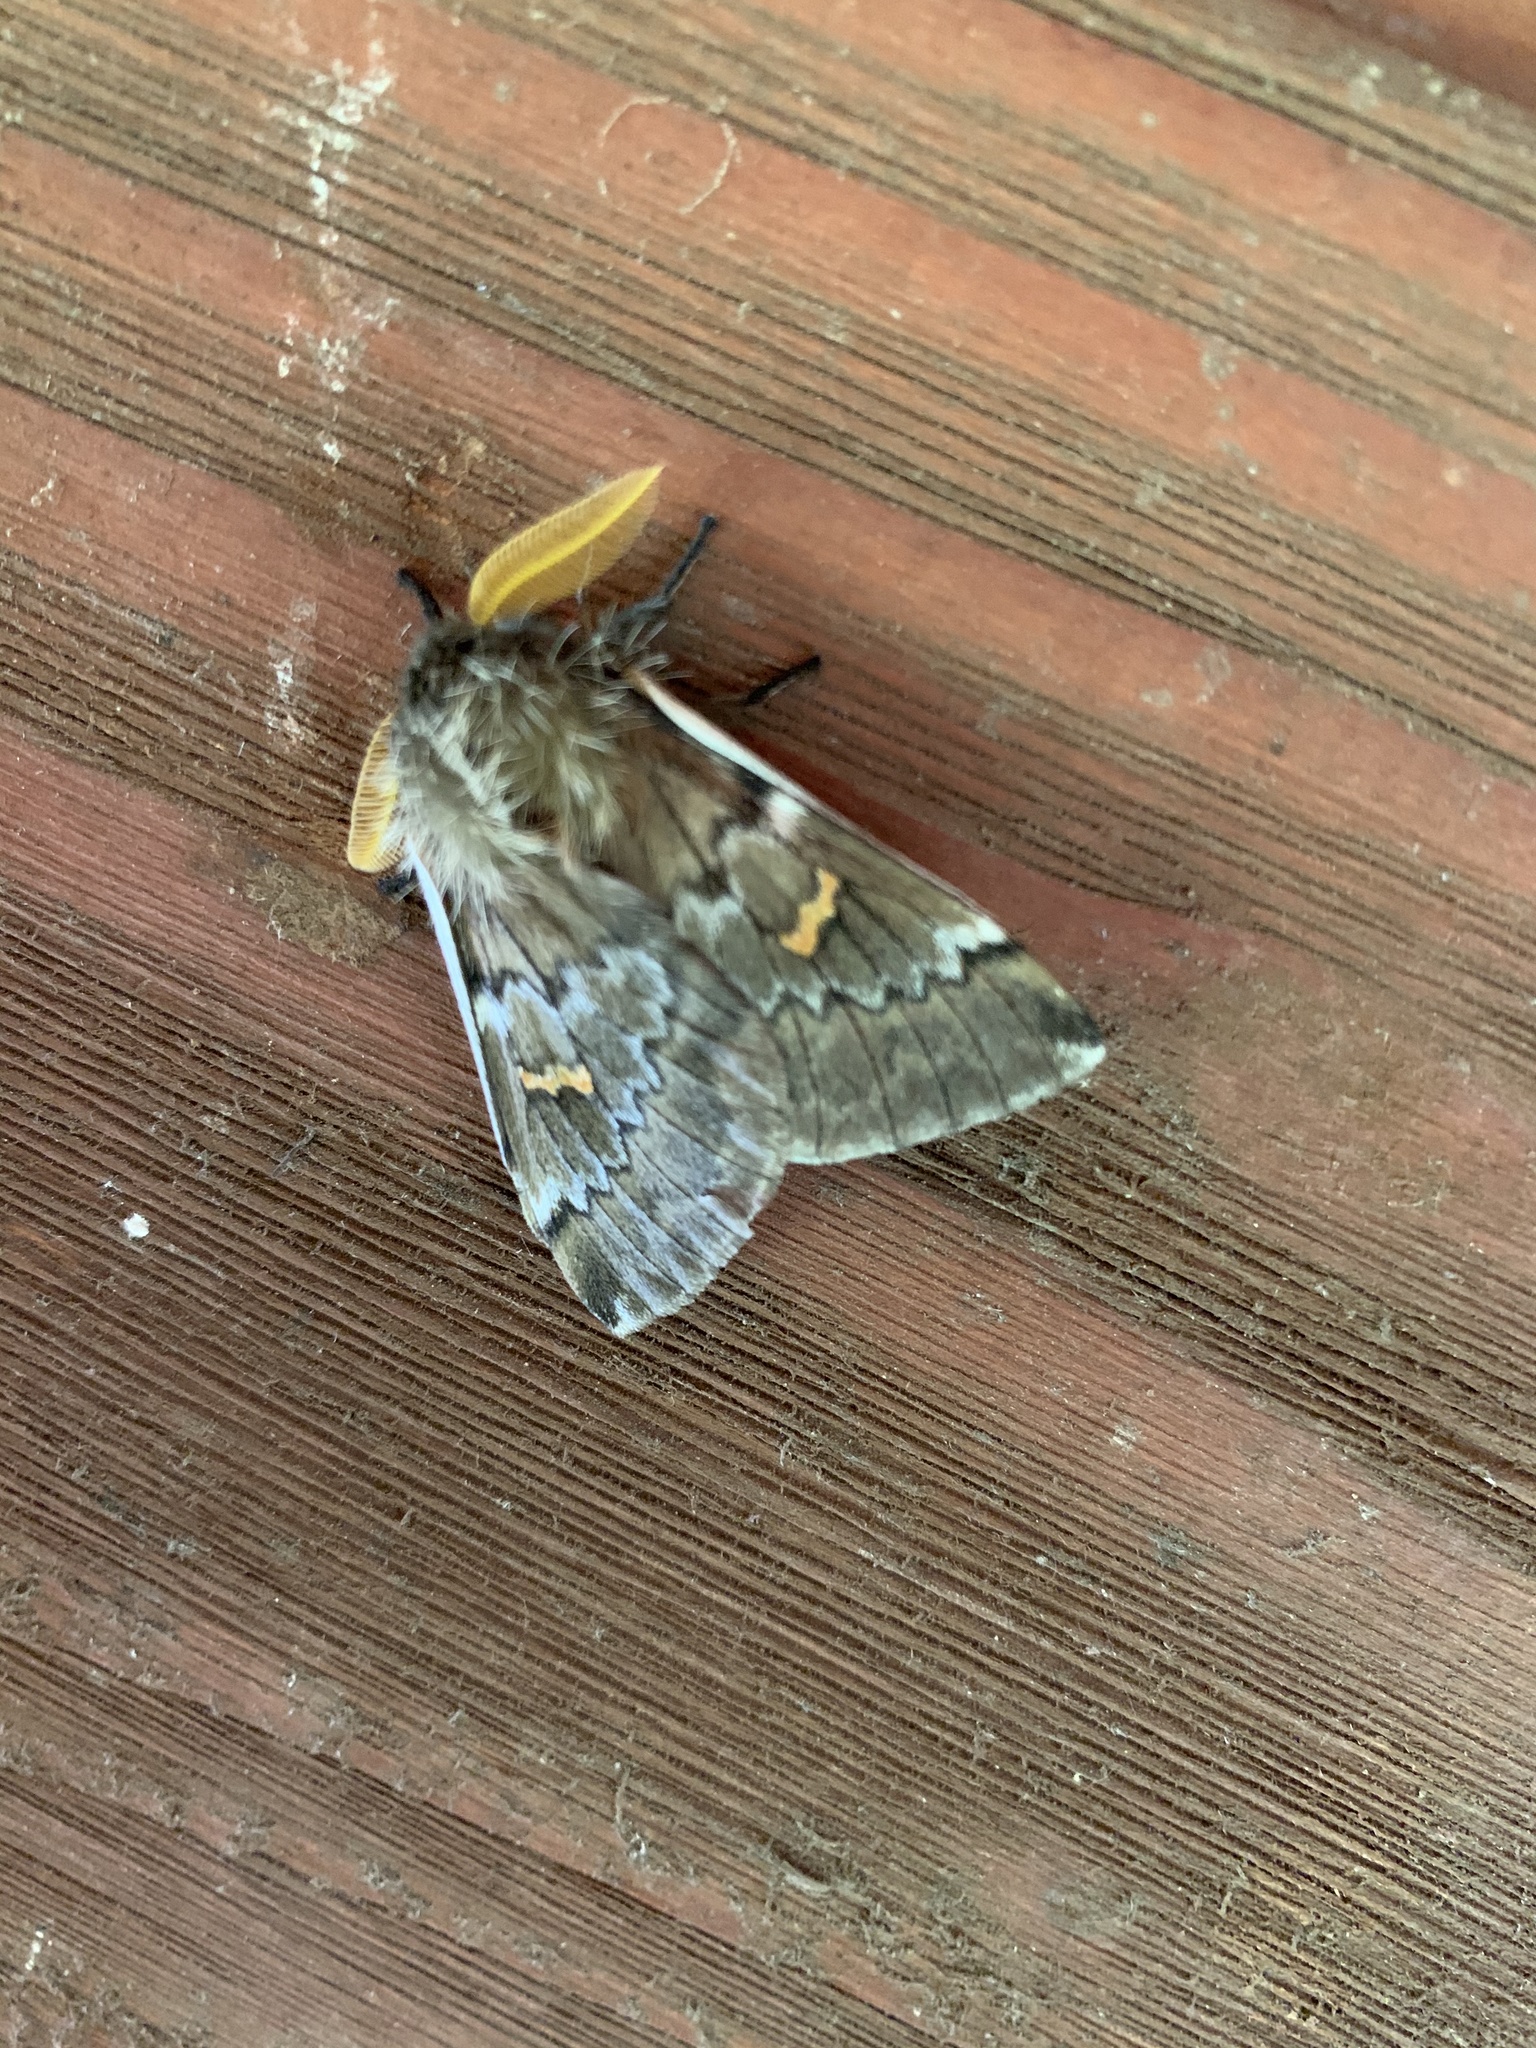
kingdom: Animalia
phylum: Arthropoda
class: Insecta
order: Lepidoptera
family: Saturniidae
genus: Ormiscodes
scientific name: Ormiscodes joiceyi
